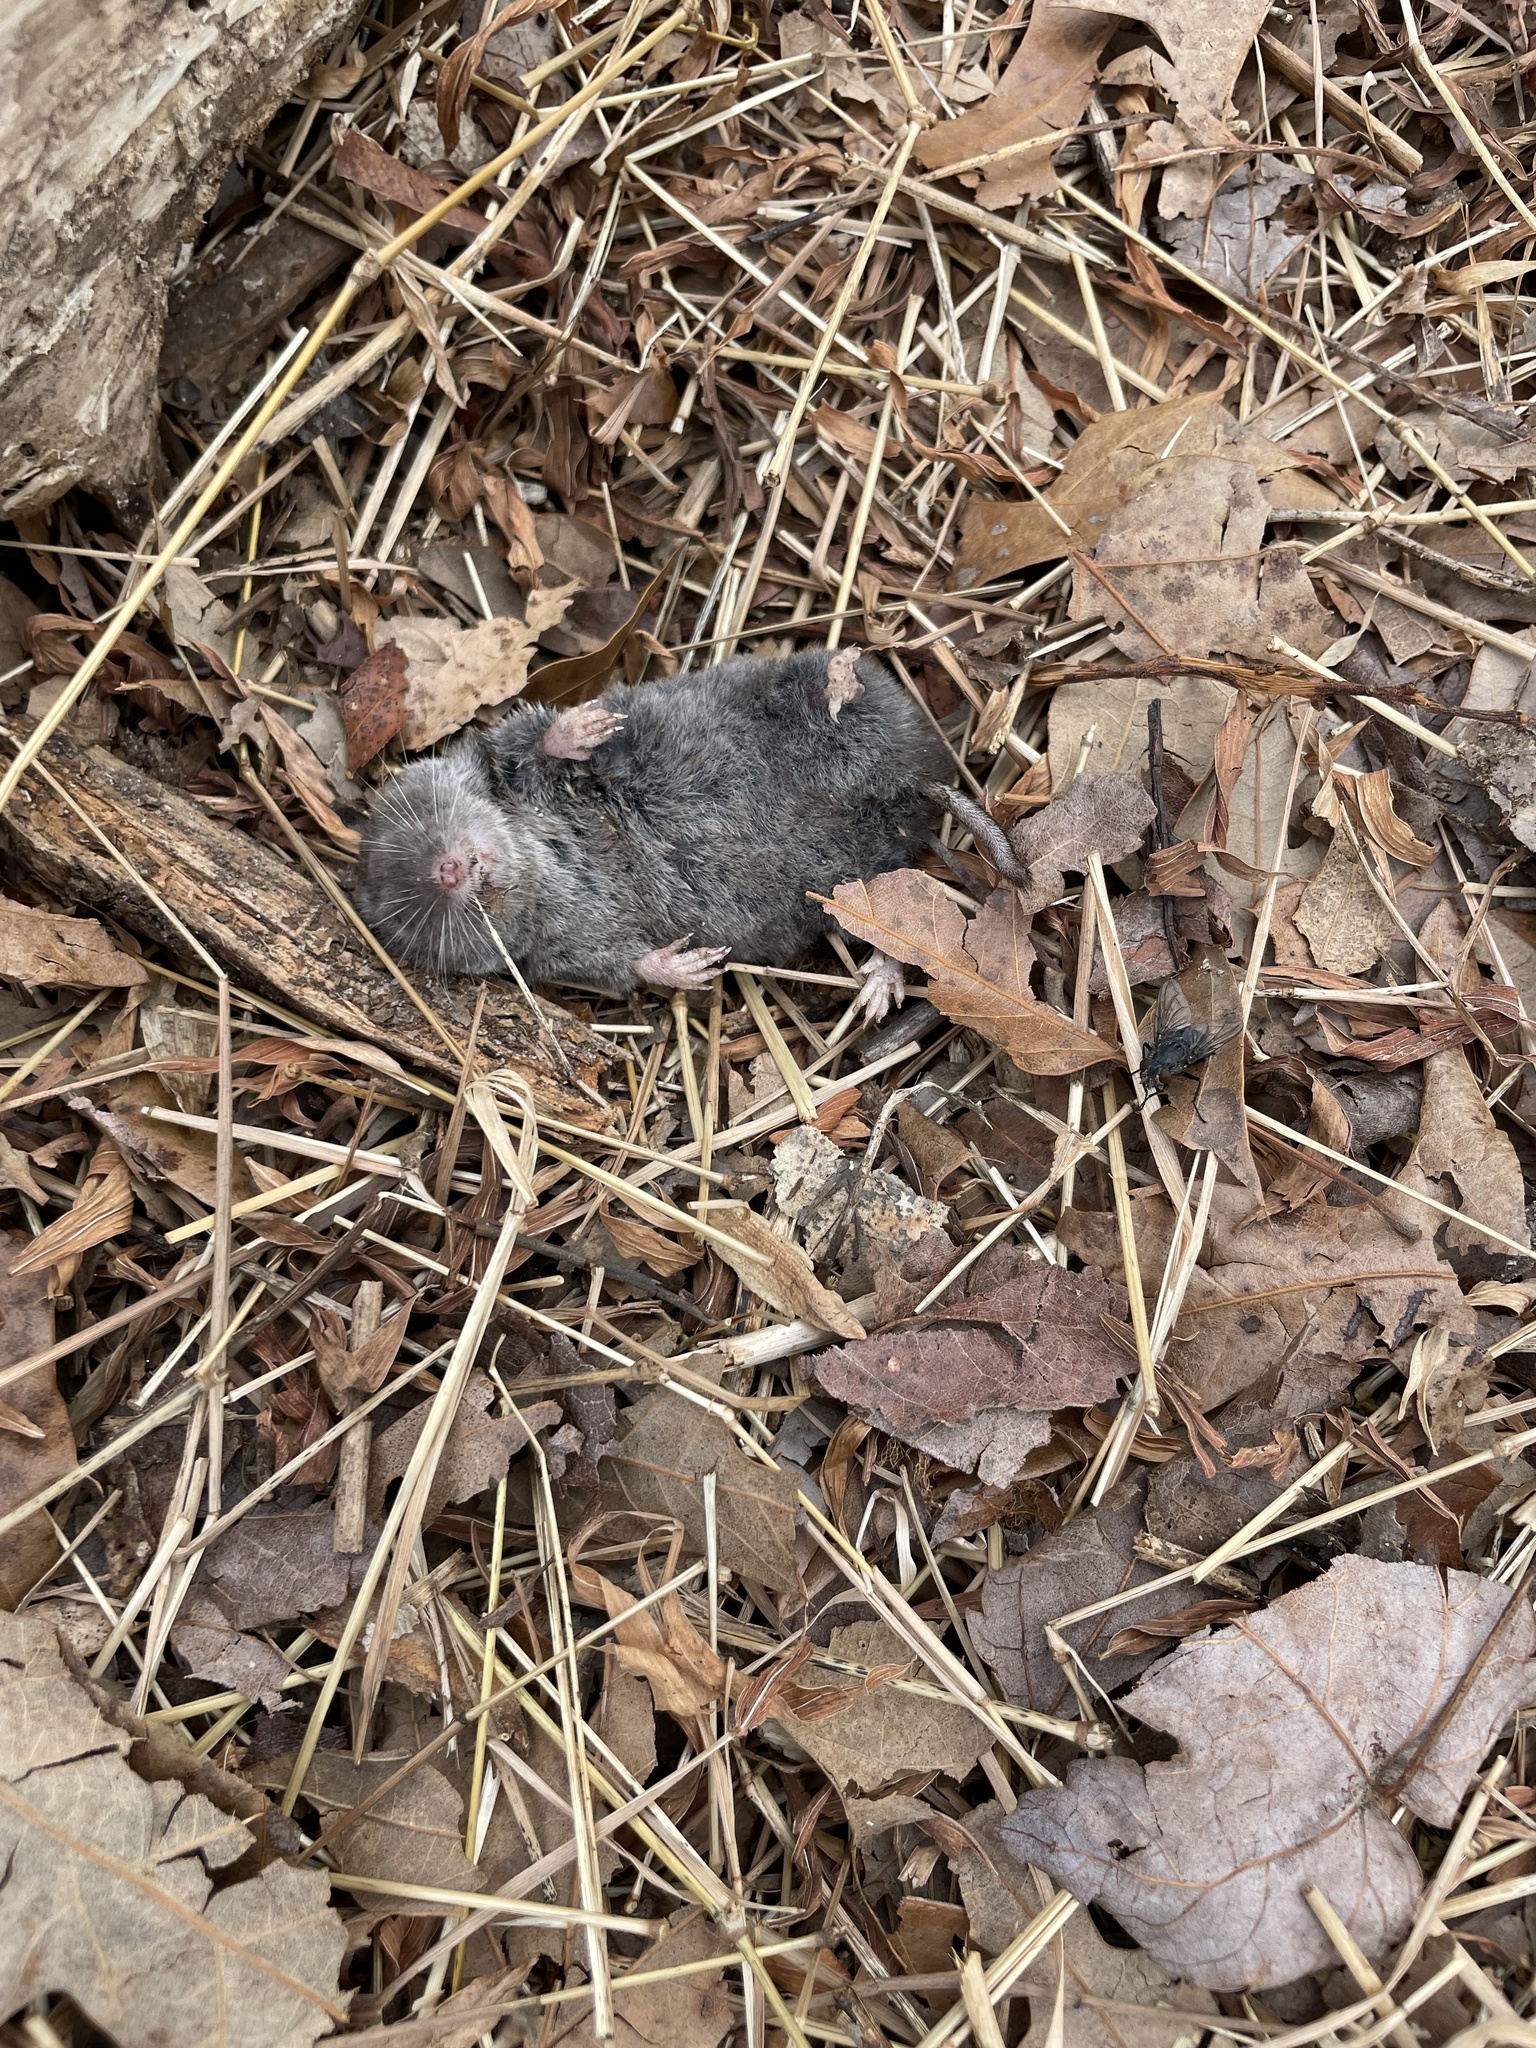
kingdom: Animalia
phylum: Chordata
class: Mammalia
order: Soricomorpha
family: Soricidae
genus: Blarina
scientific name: Blarina brevicauda
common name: Northern short-tailed shrew
